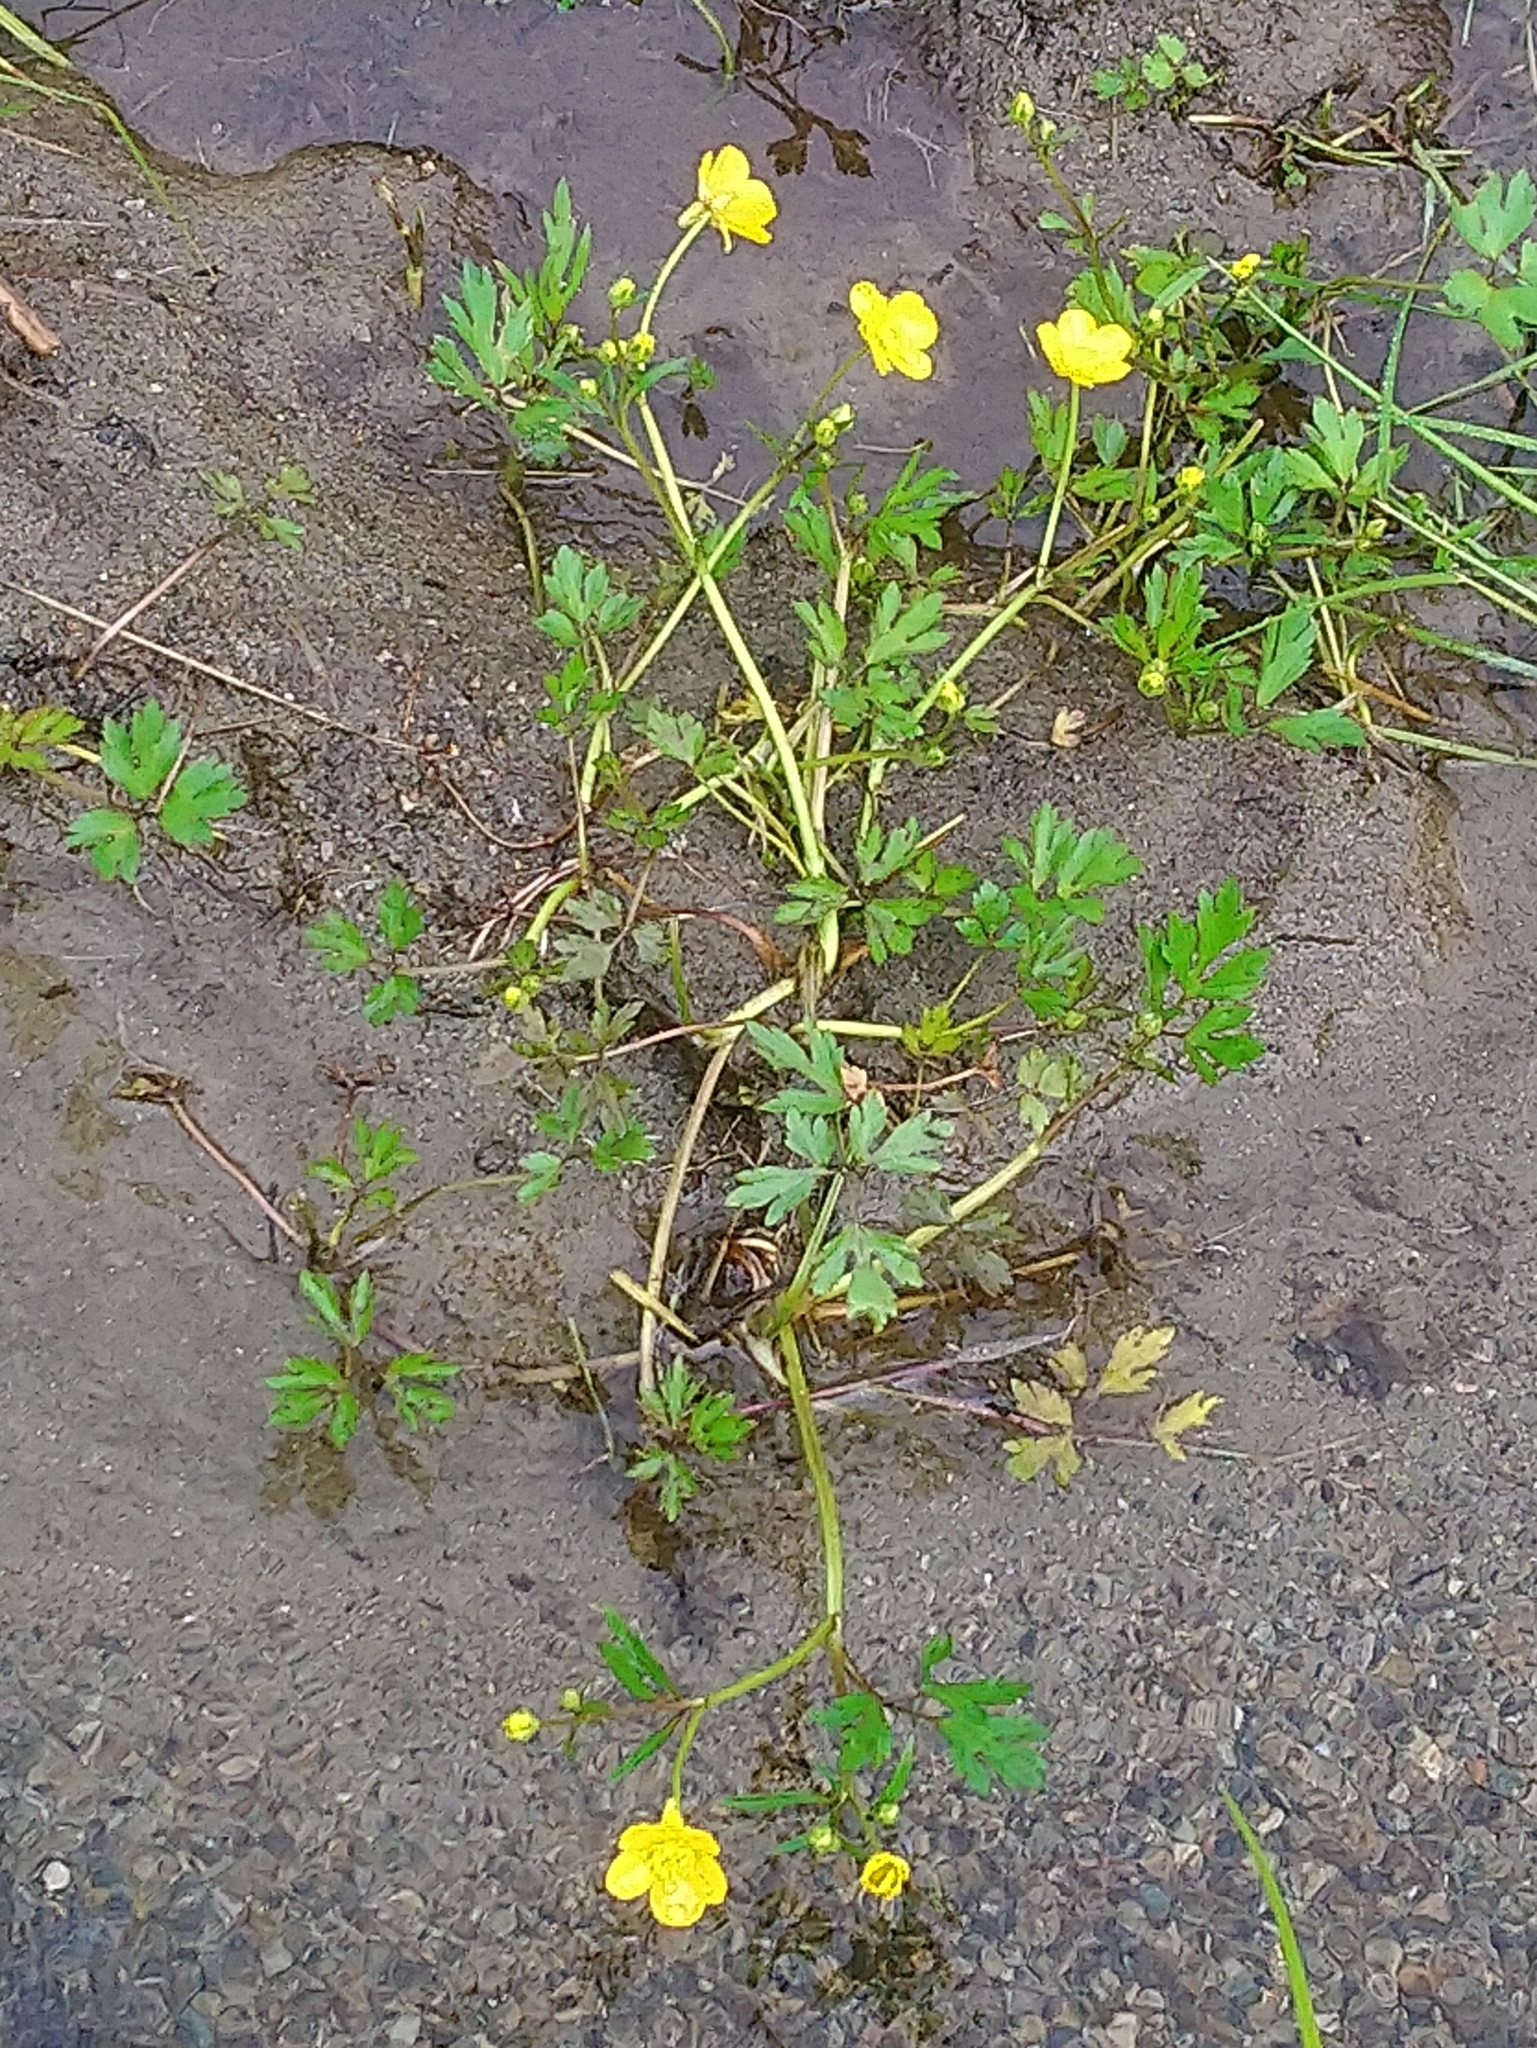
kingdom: Plantae
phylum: Tracheophyta
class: Magnoliopsida
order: Ranunculales
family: Ranunculaceae
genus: Ranunculus
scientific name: Ranunculus repens
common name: Creeping buttercup
